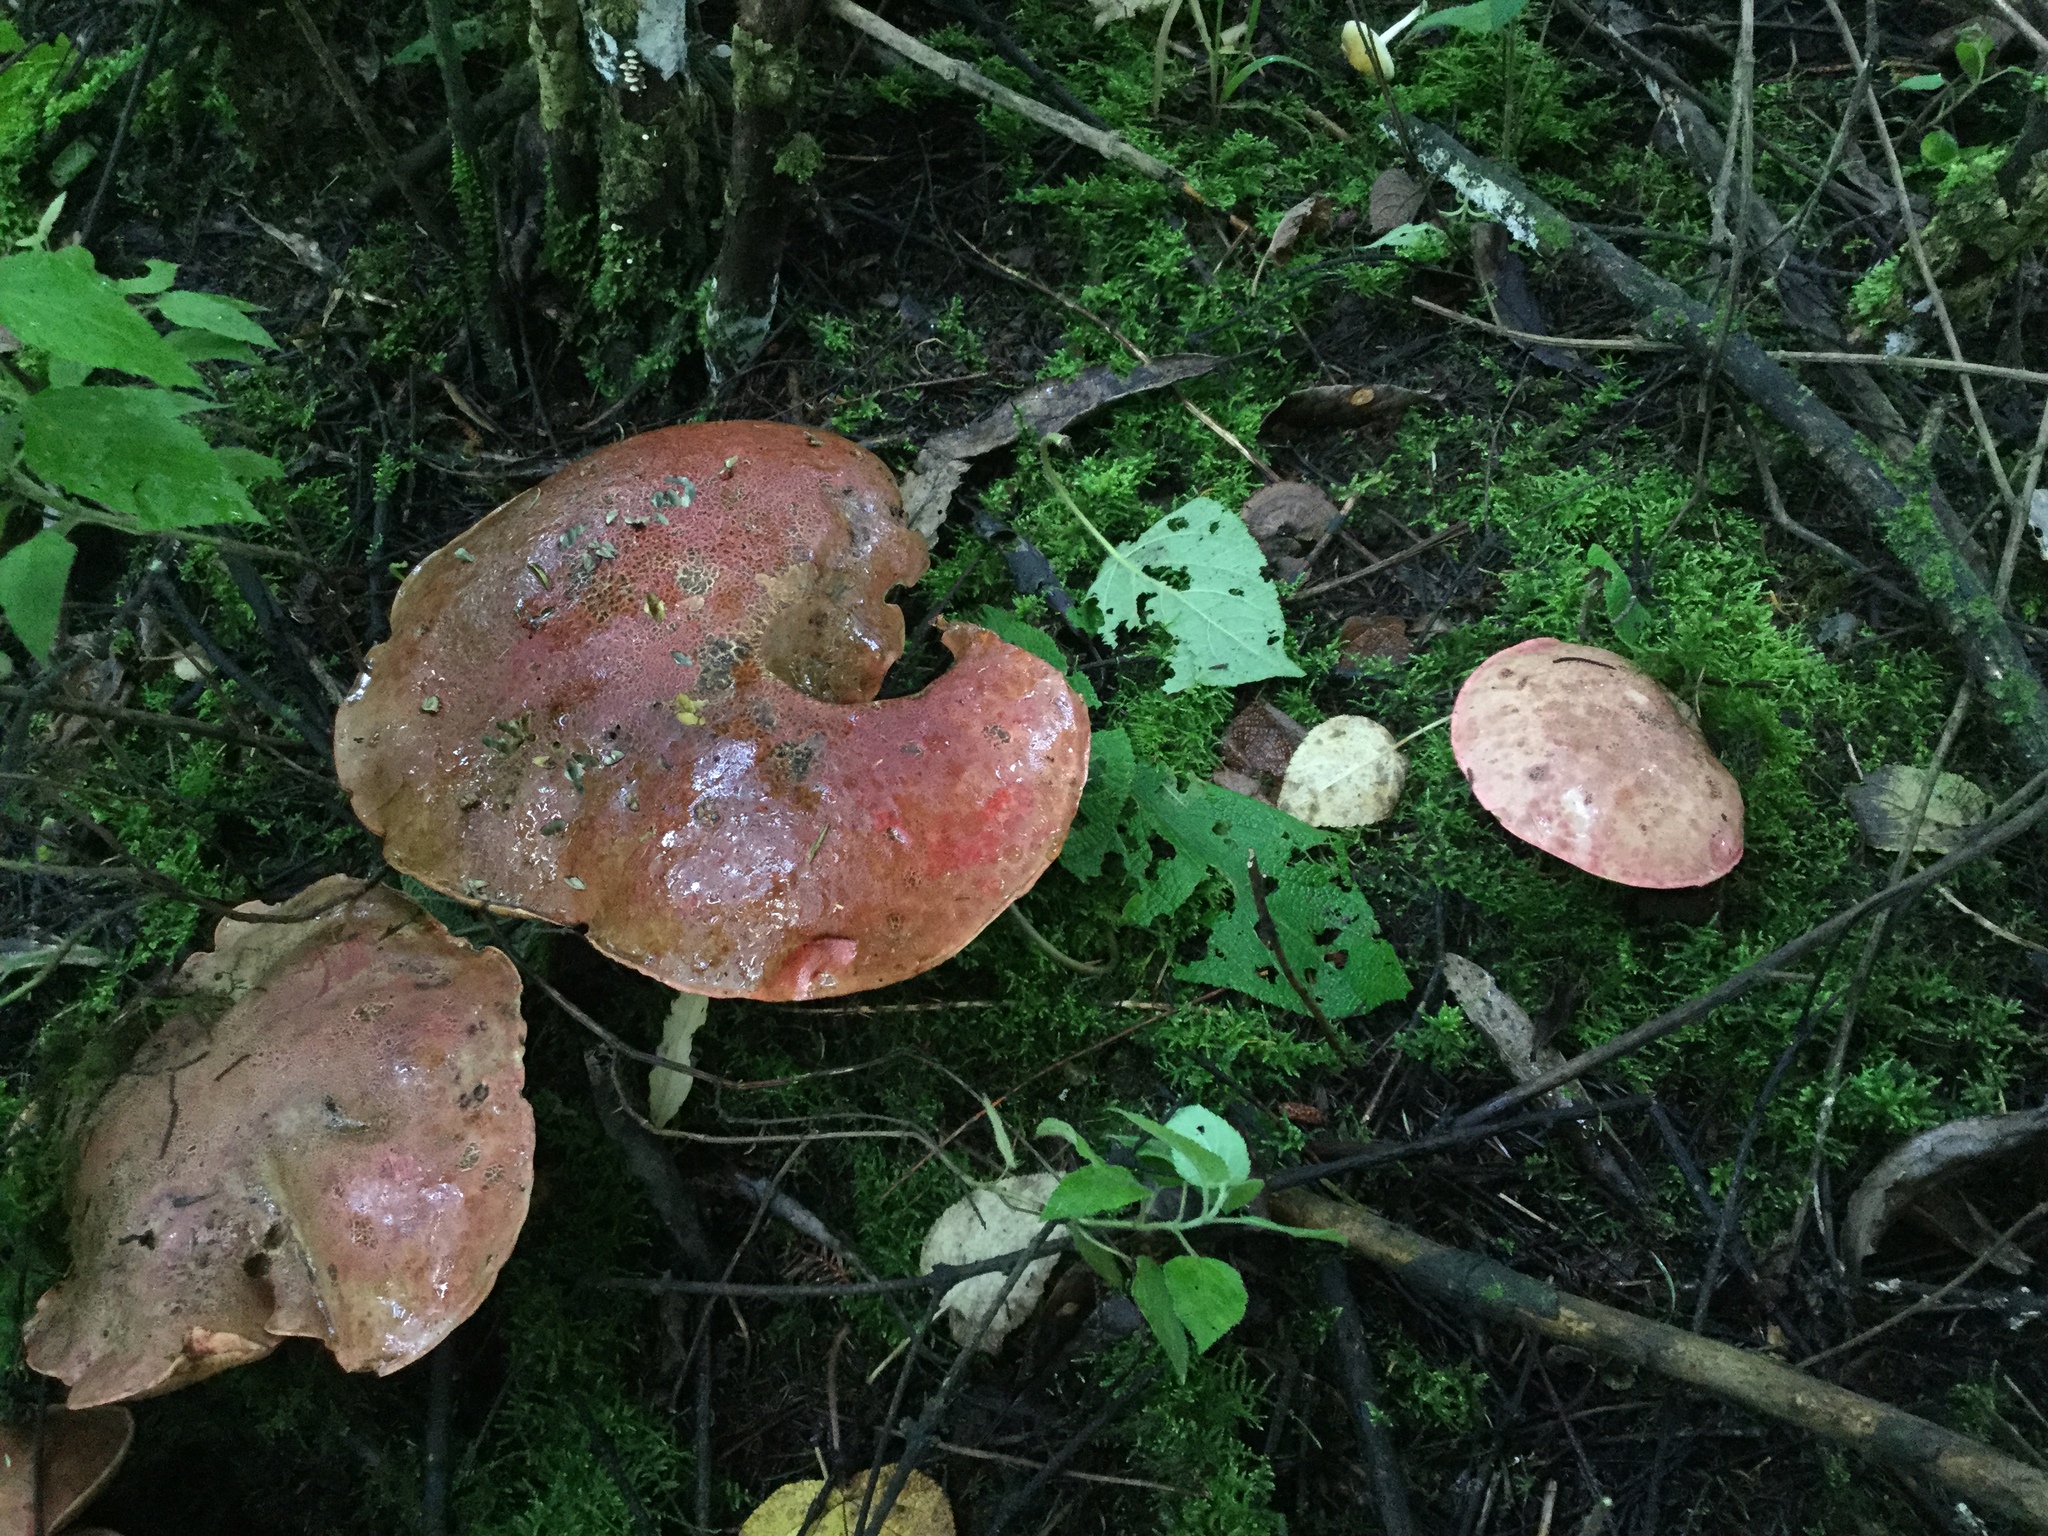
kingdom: Fungi
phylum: Basidiomycota
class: Agaricomycetes
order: Boletales
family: Boletaceae
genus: Boletus
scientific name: Boletus michoacanus
